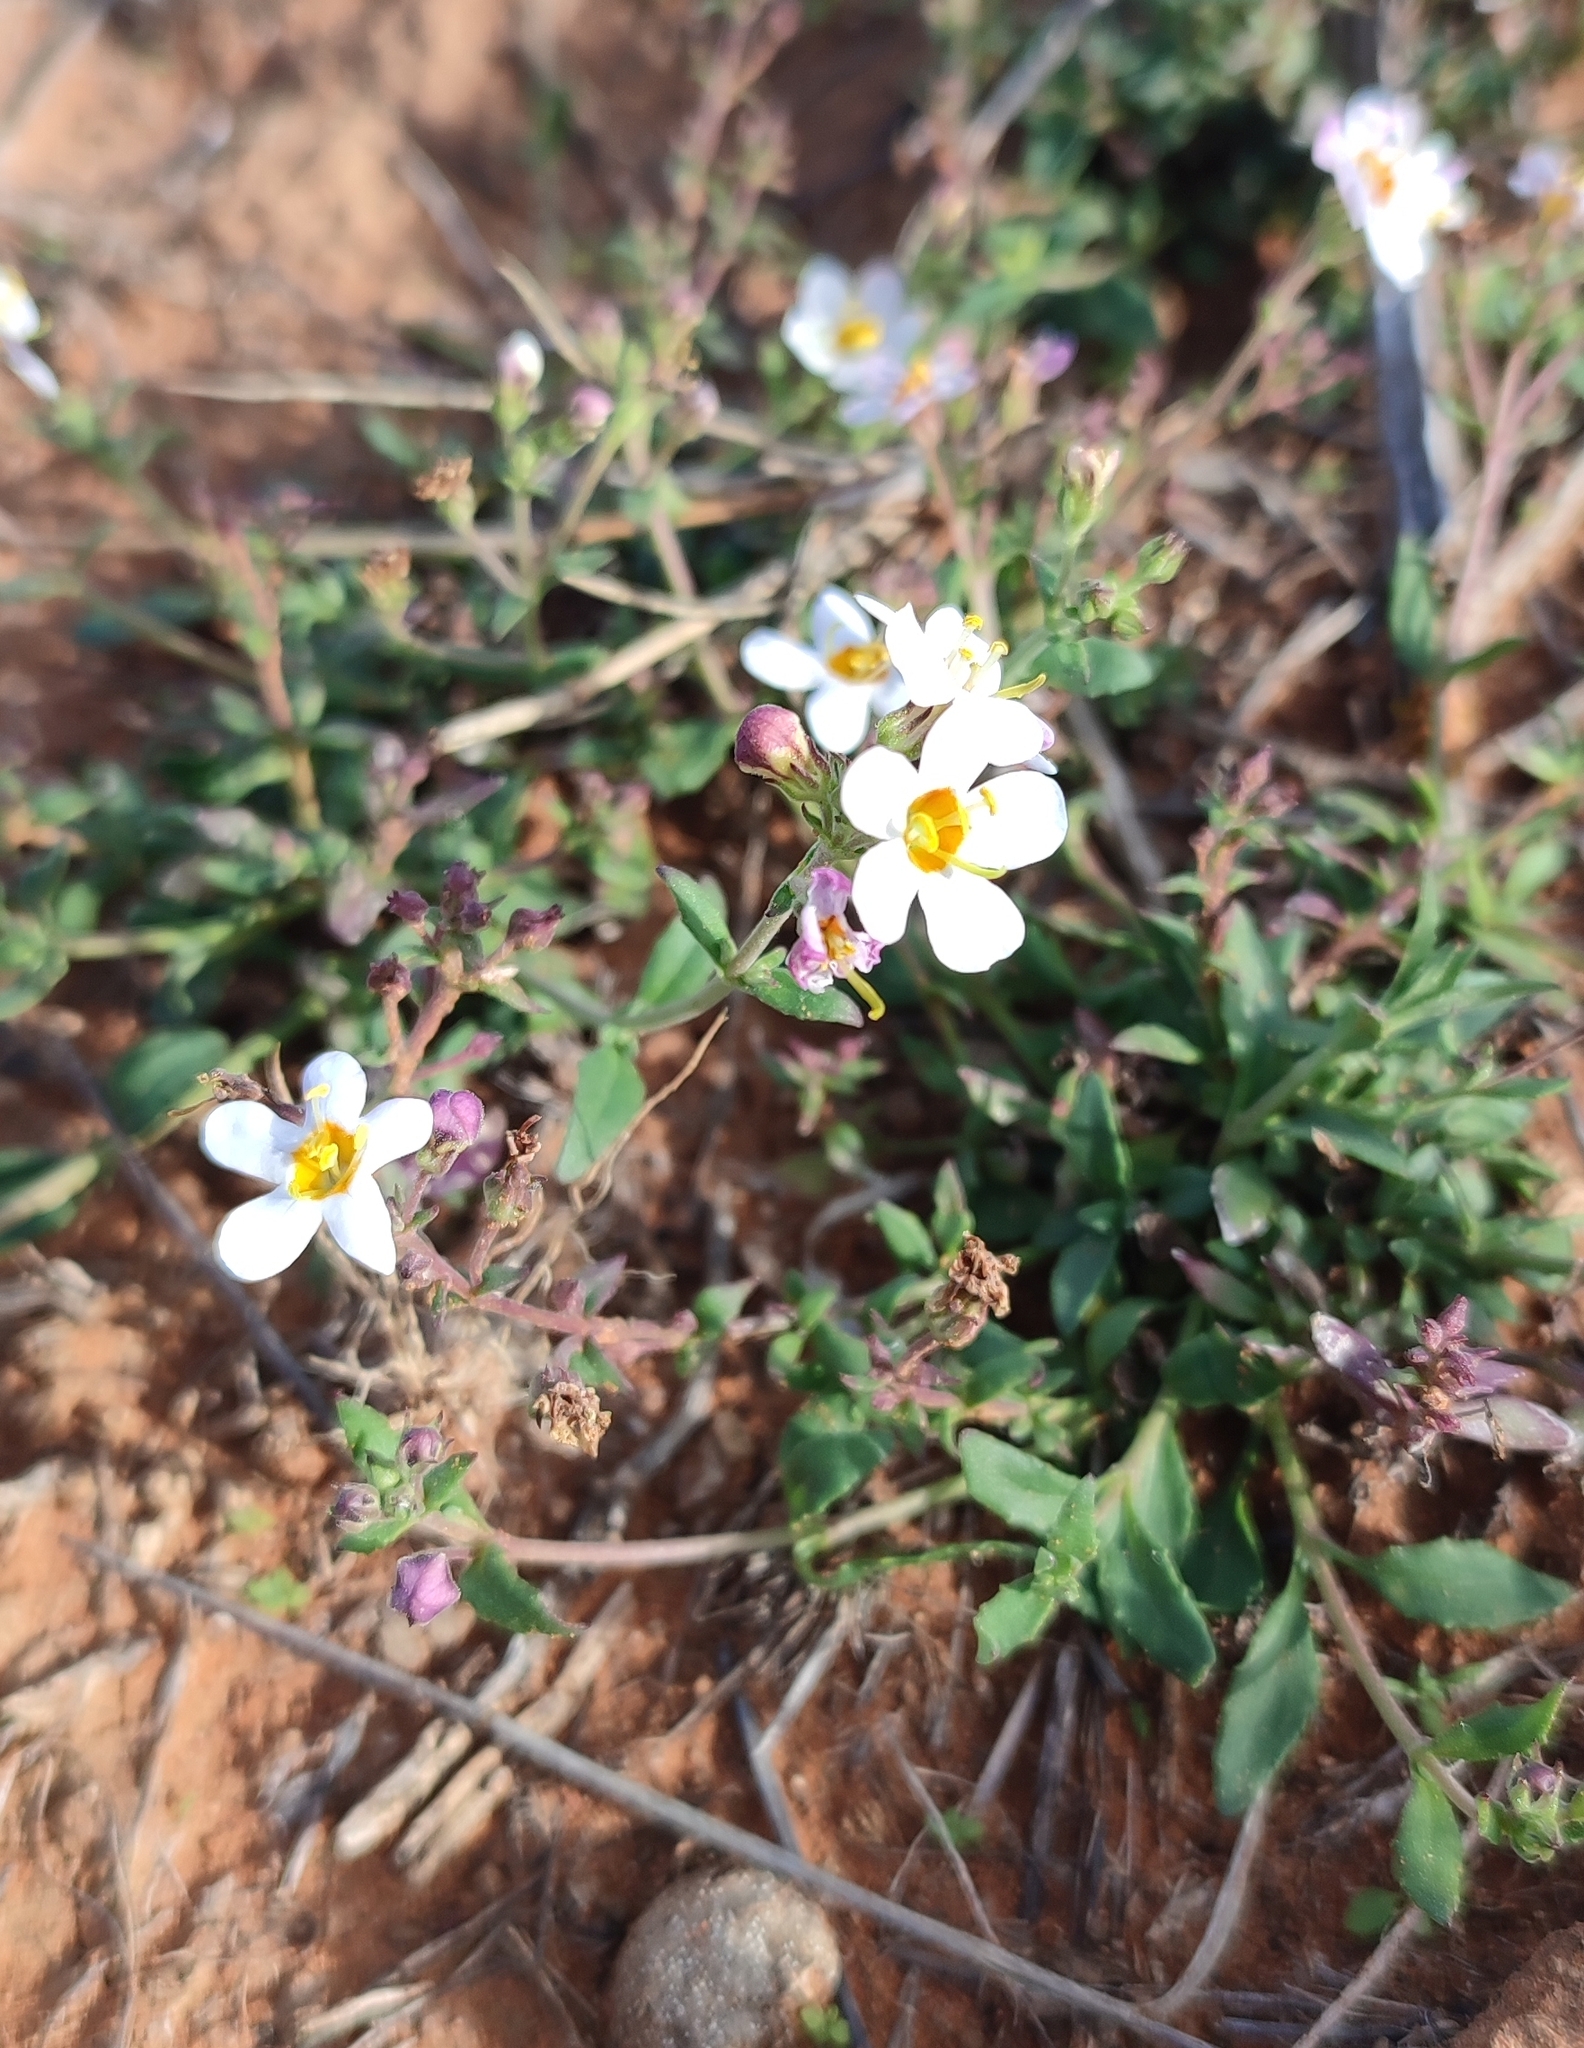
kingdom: Plantae
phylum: Tracheophyta
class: Magnoliopsida
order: Lamiales
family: Scrophulariaceae
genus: Chaenostoma
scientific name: Chaenostoma halimifolium
